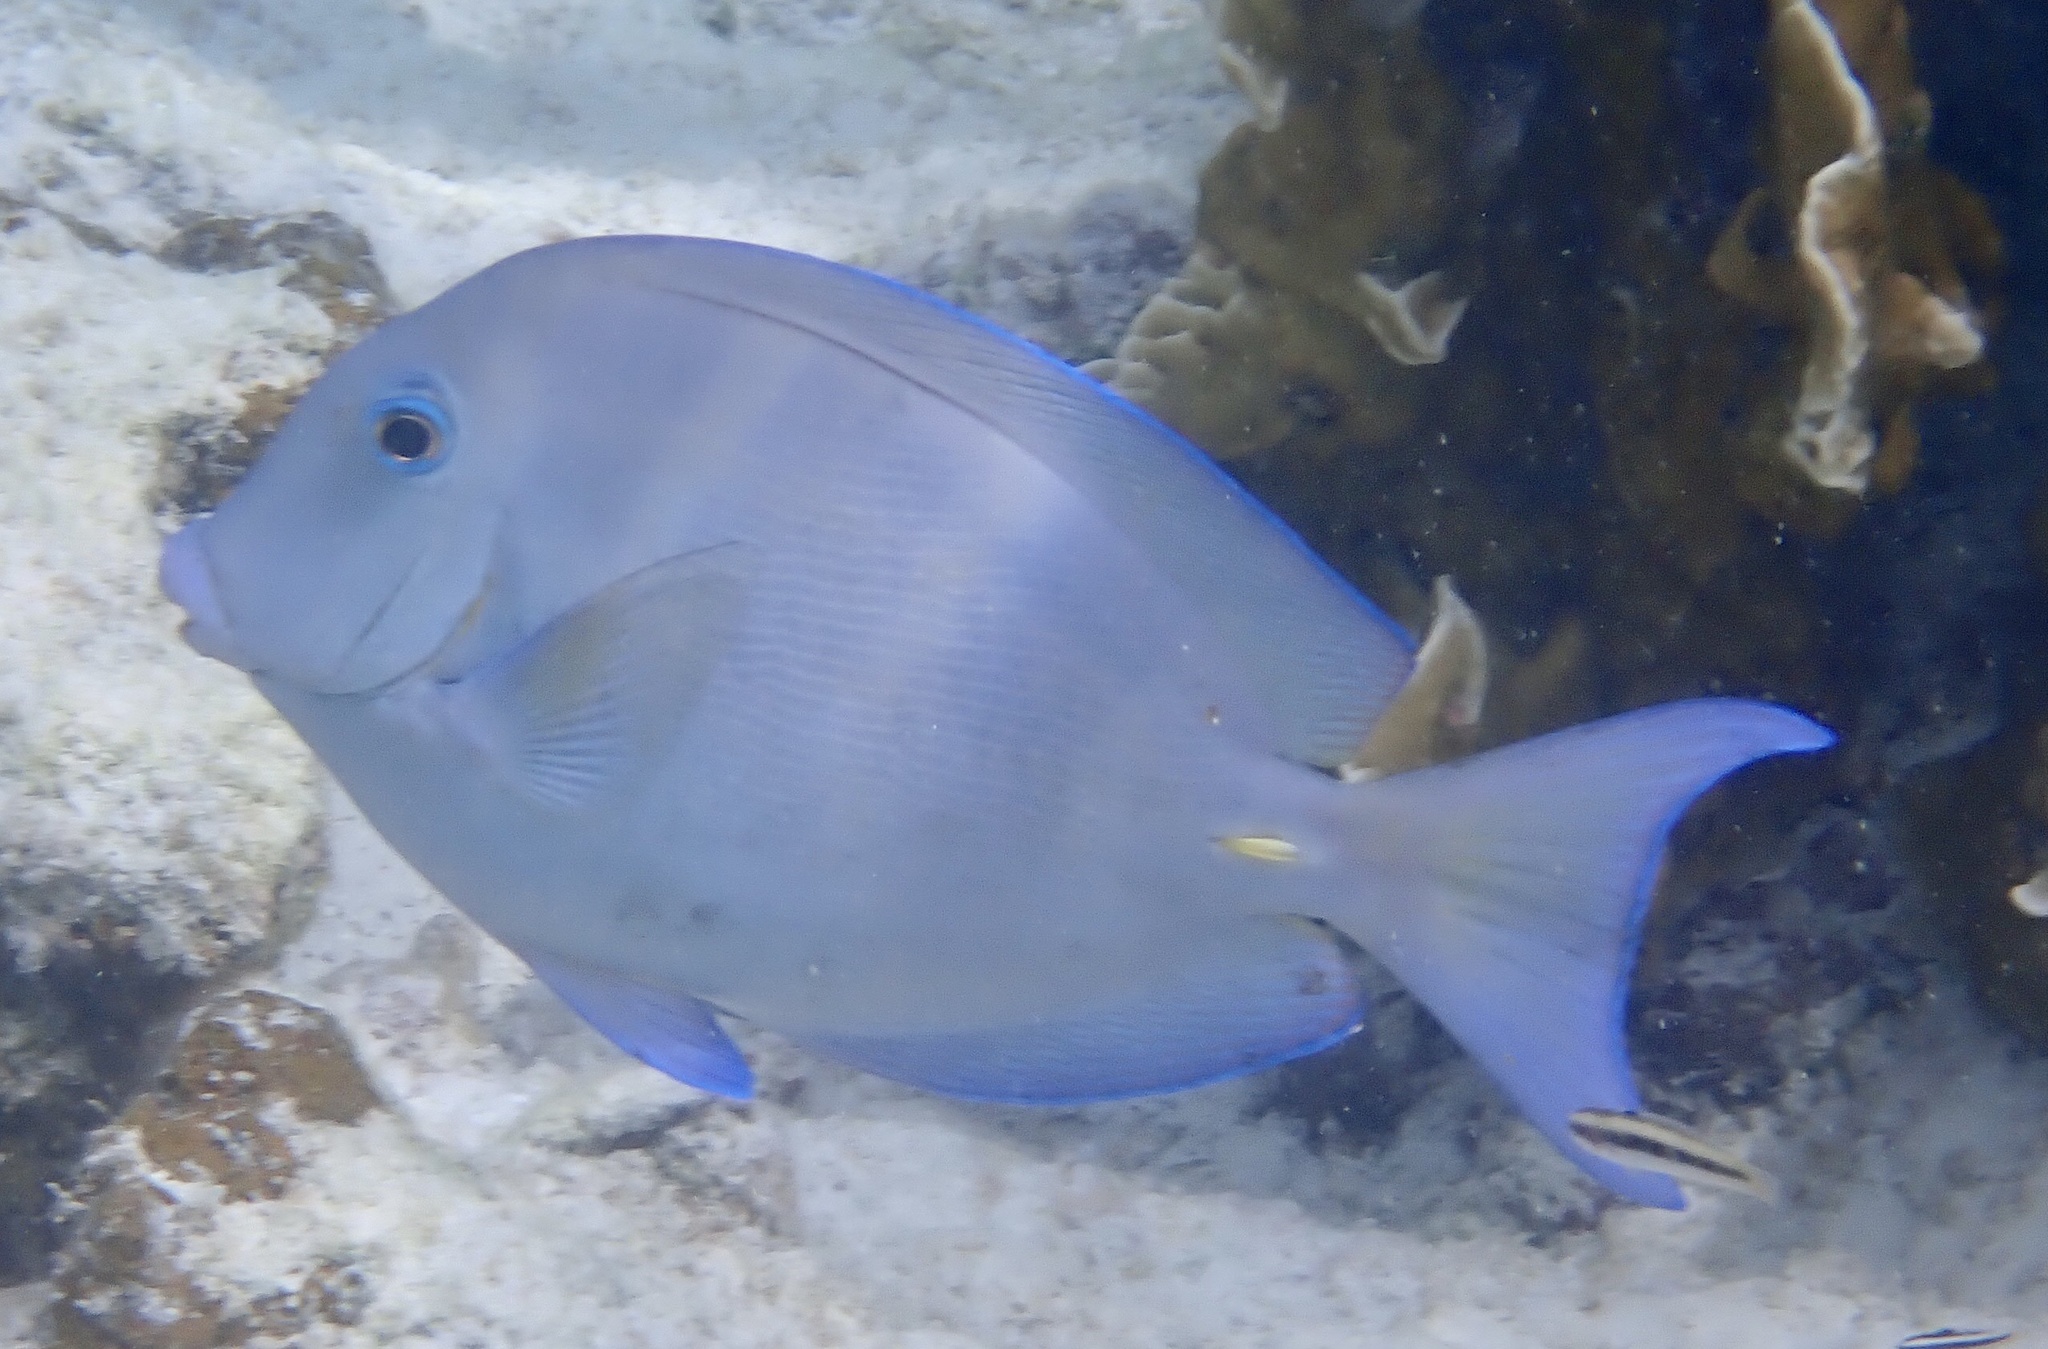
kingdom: Animalia
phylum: Chordata
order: Perciformes
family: Acanthuridae
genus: Acanthurus
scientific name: Acanthurus coeruleus
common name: Blue tang
